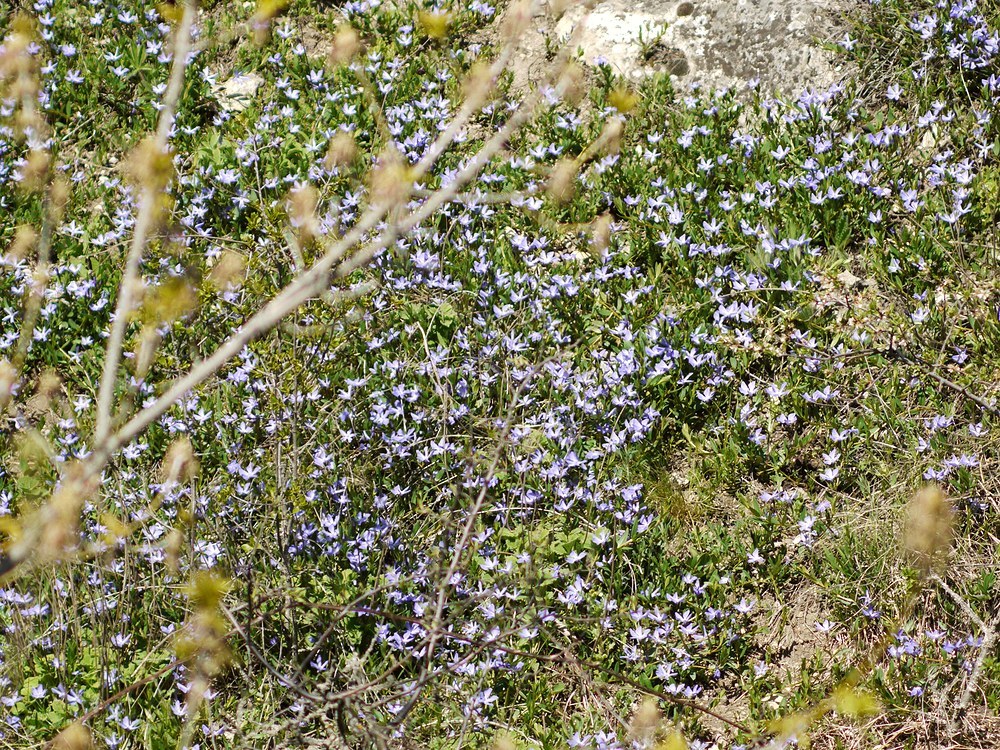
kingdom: Plantae
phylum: Tracheophyta
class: Magnoliopsida
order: Gentianales
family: Apocynaceae
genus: Vinca
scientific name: Vinca herbacea
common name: Herbaceous periwinkle
